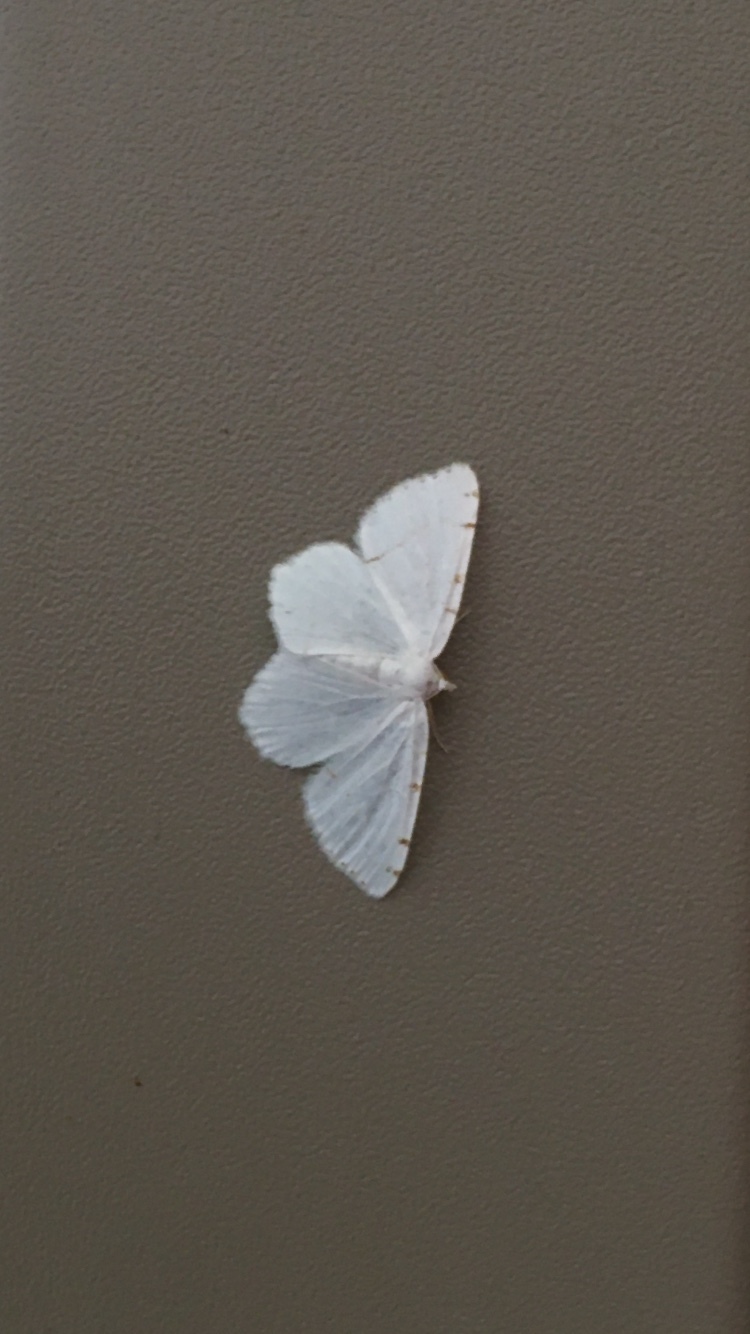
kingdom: Animalia
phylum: Arthropoda
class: Insecta
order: Lepidoptera
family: Geometridae
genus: Macaria
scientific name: Macaria pustularia
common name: Lesser maple spanworm moth
